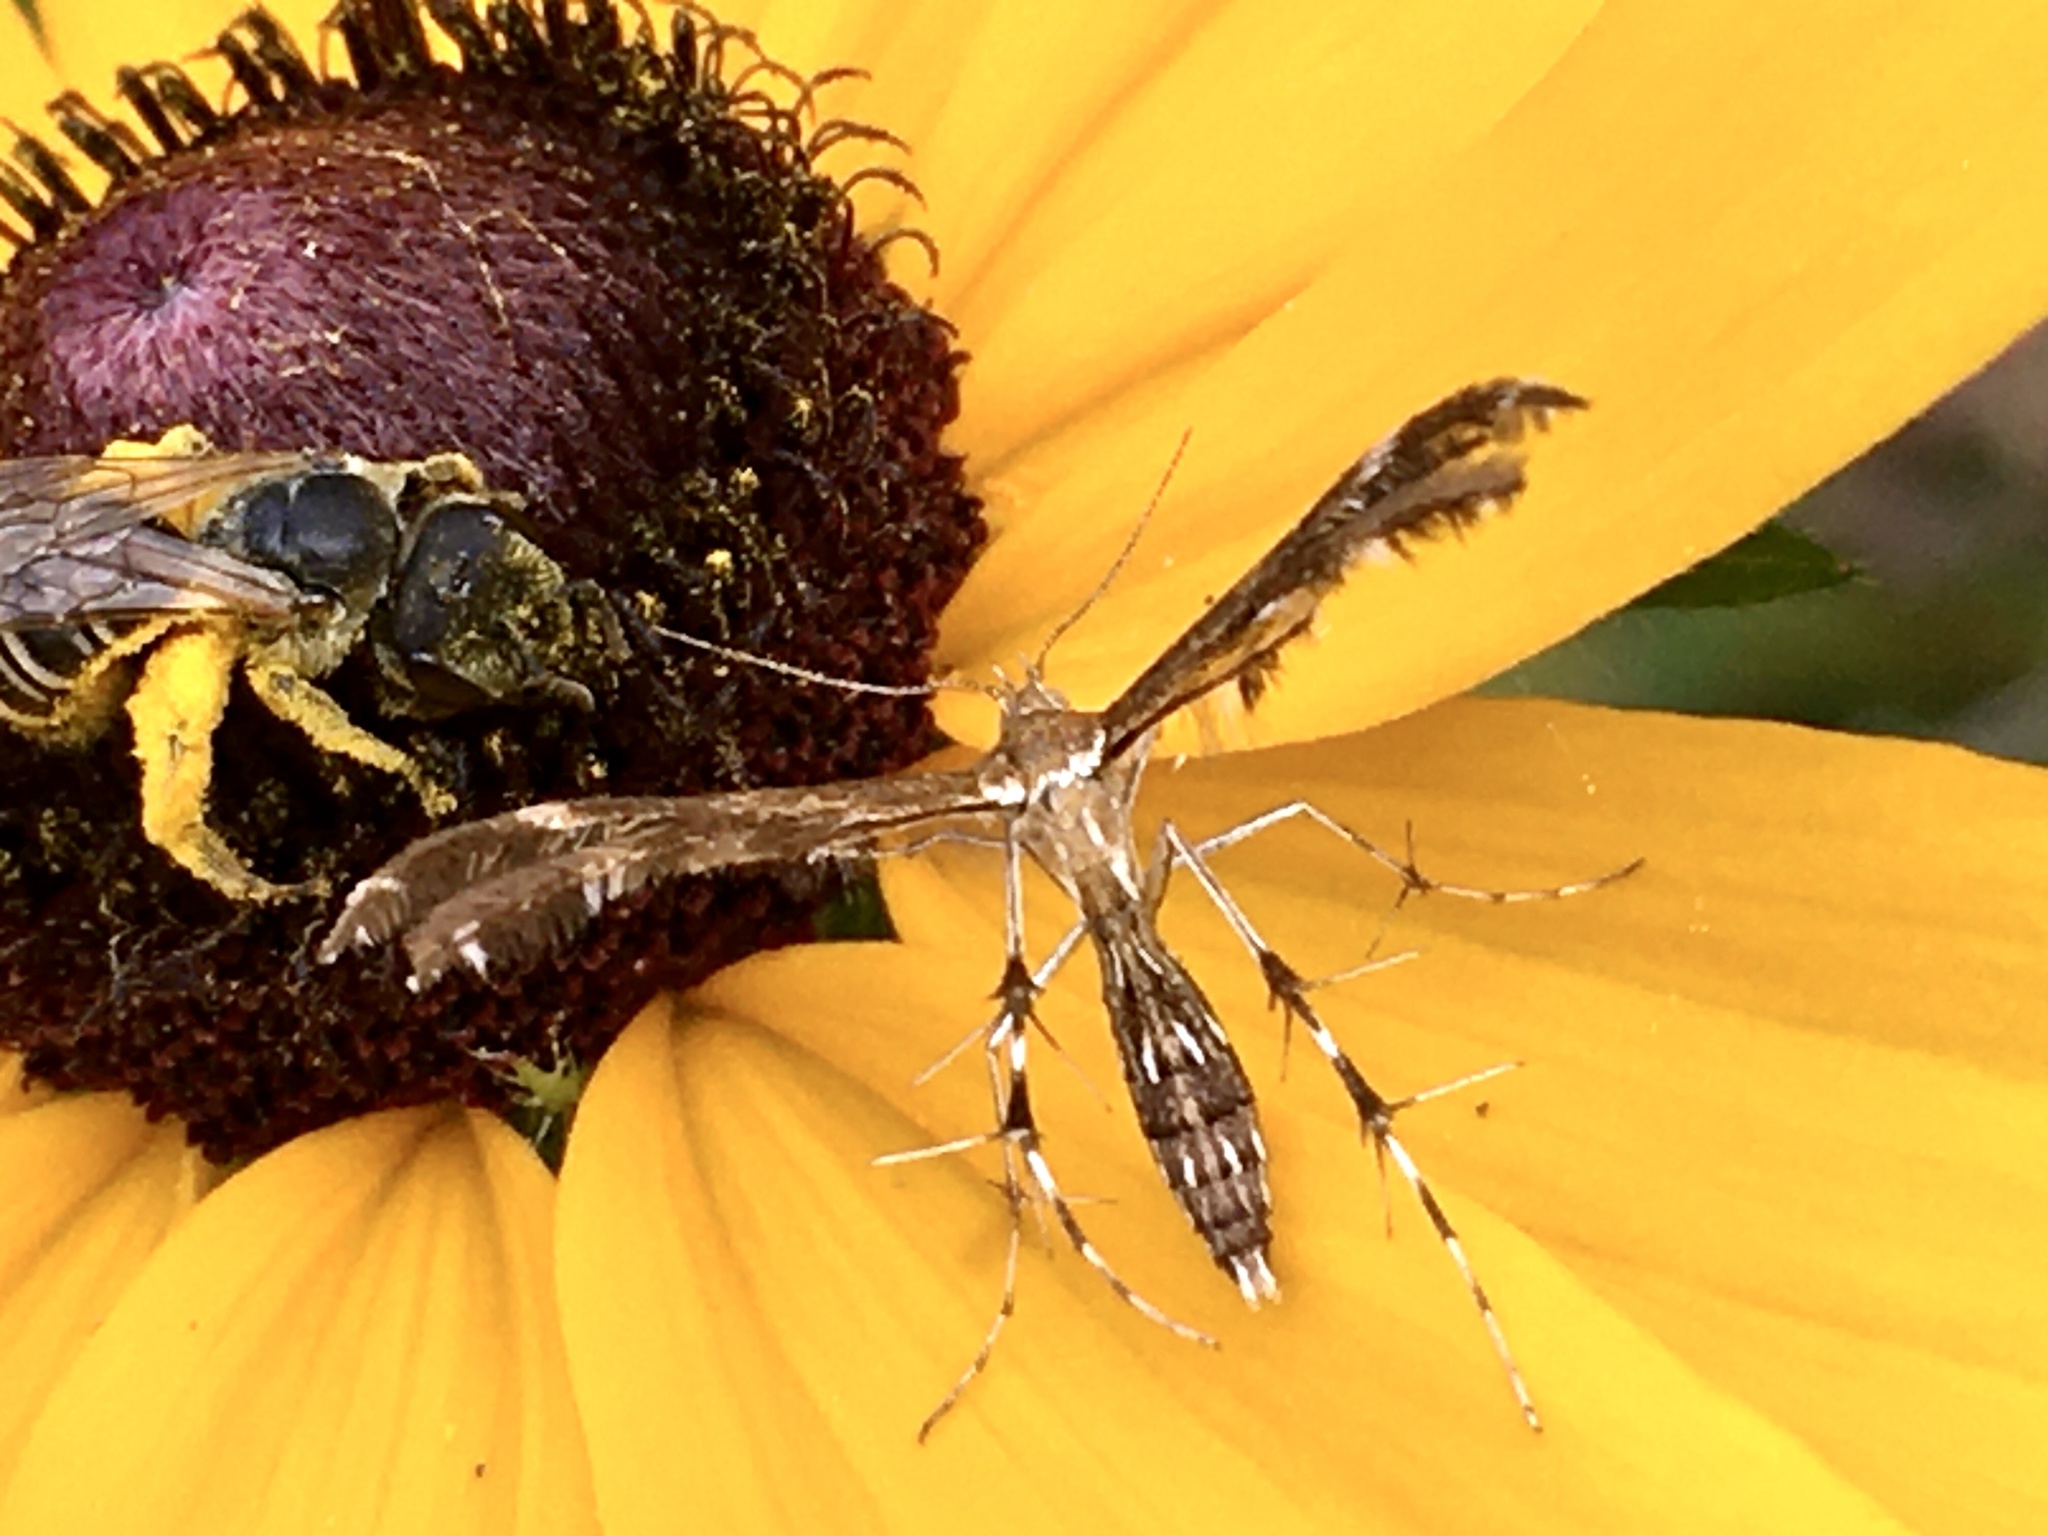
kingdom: Animalia
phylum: Arthropoda
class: Insecta
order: Lepidoptera
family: Pterophoridae
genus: Dejongia
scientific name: Dejongia lobidactylus
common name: Lobed plume moth
